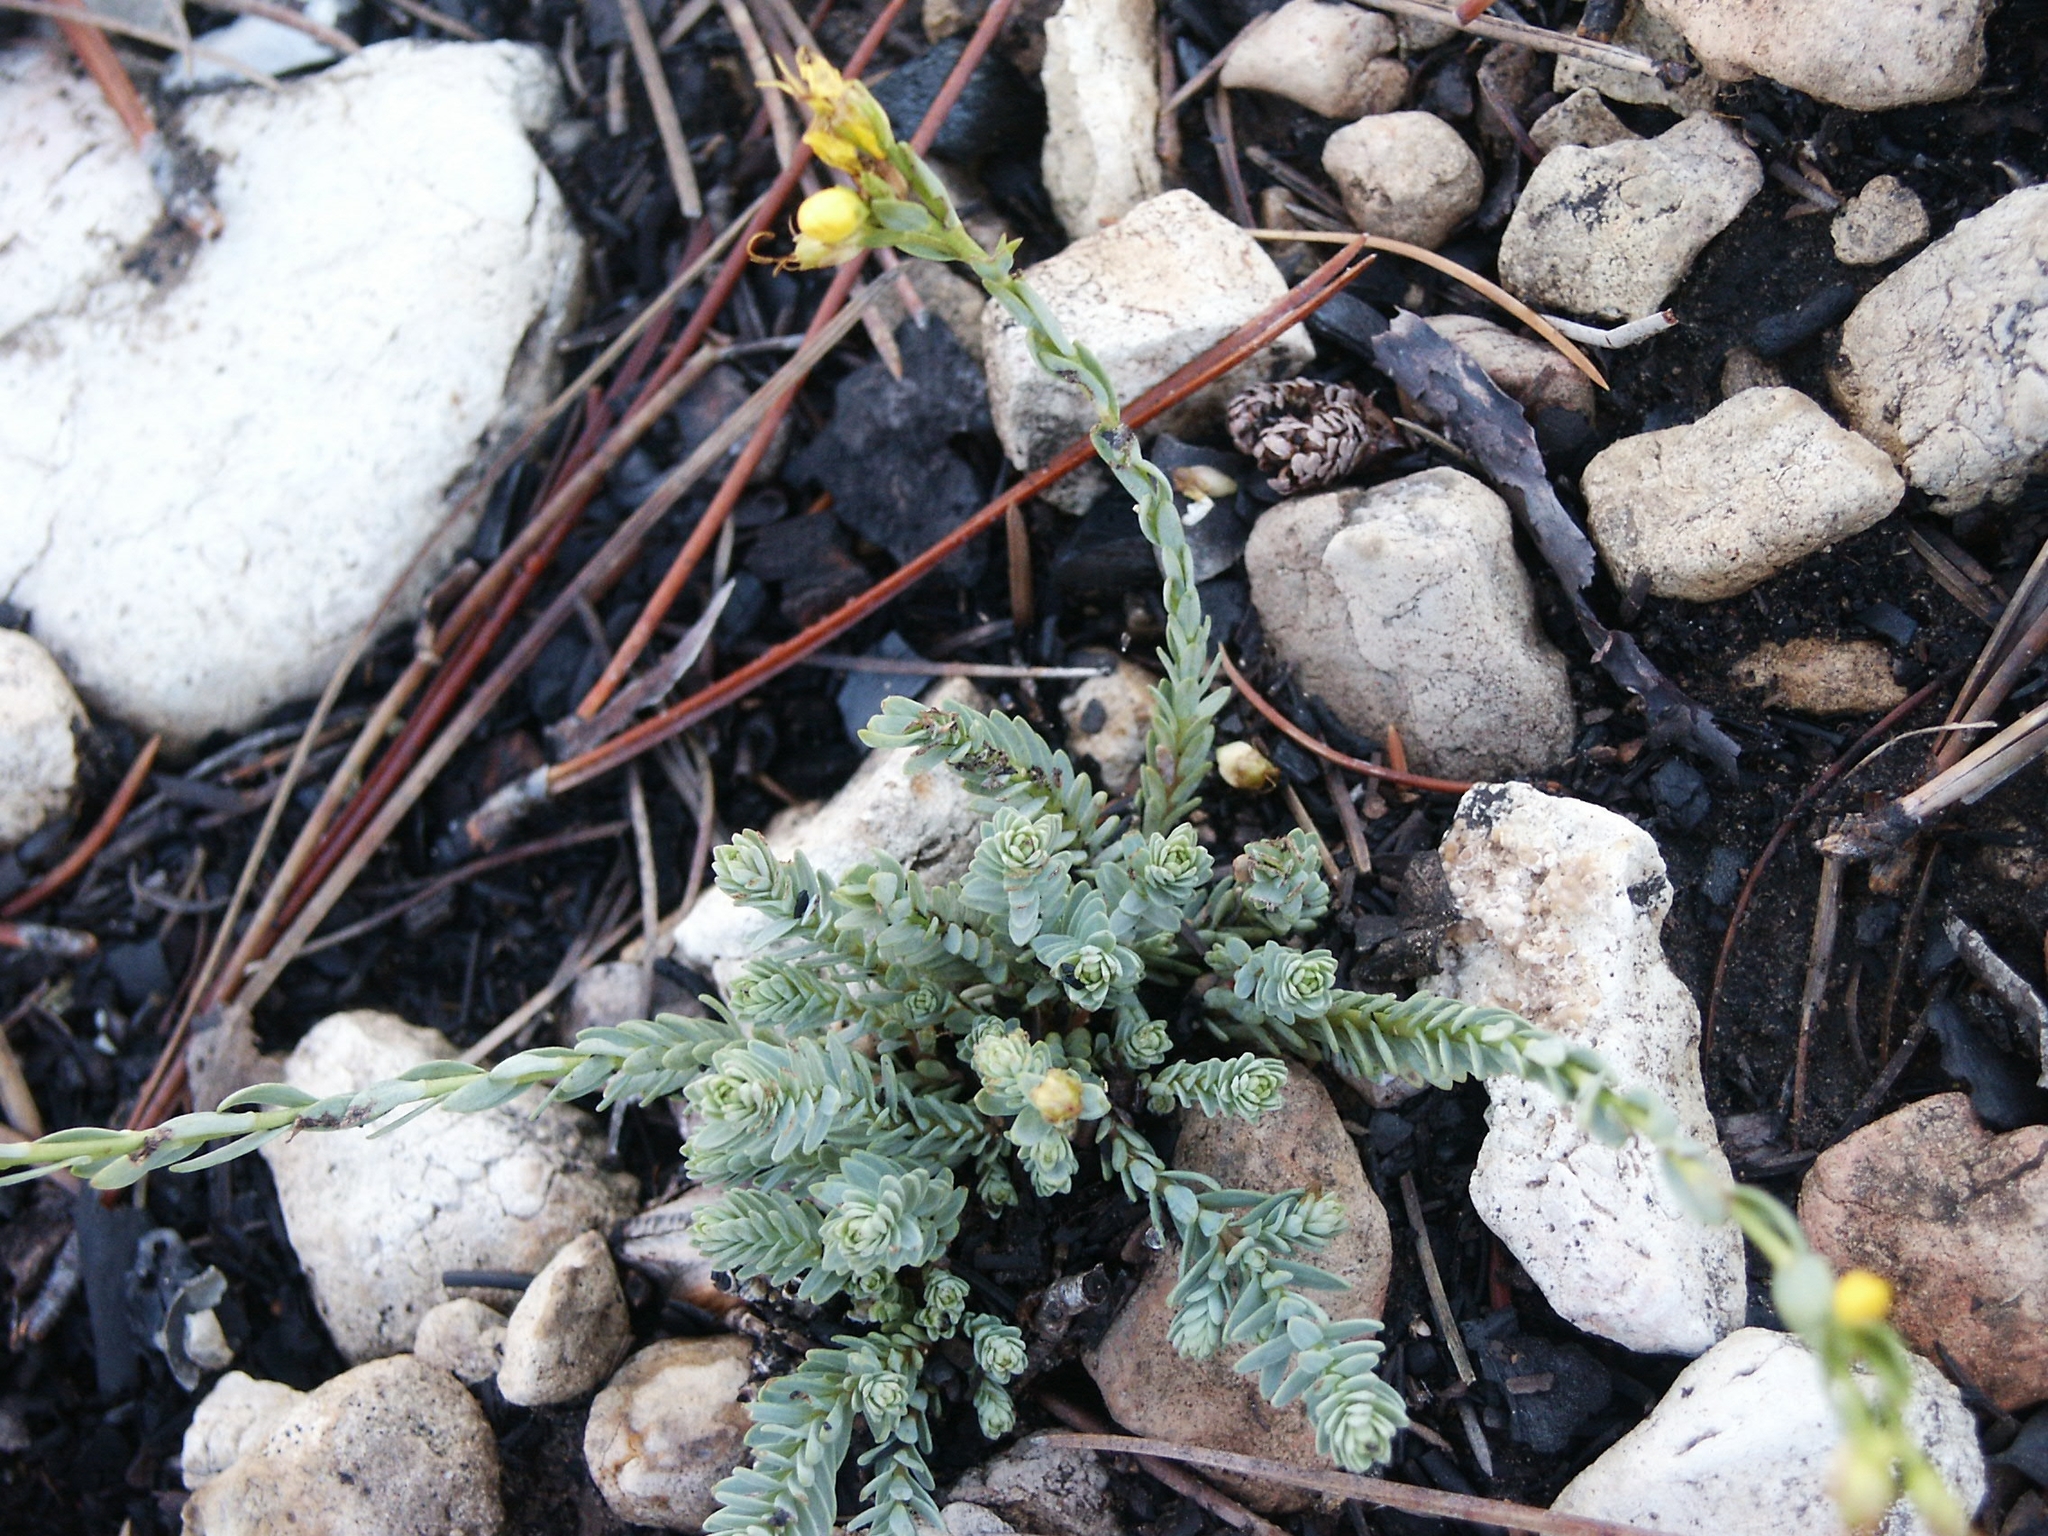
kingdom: Plantae
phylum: Tracheophyta
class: Magnoliopsida
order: Malpighiales
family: Linaceae
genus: Linum
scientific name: Linum kingii
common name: King's yellow flax
